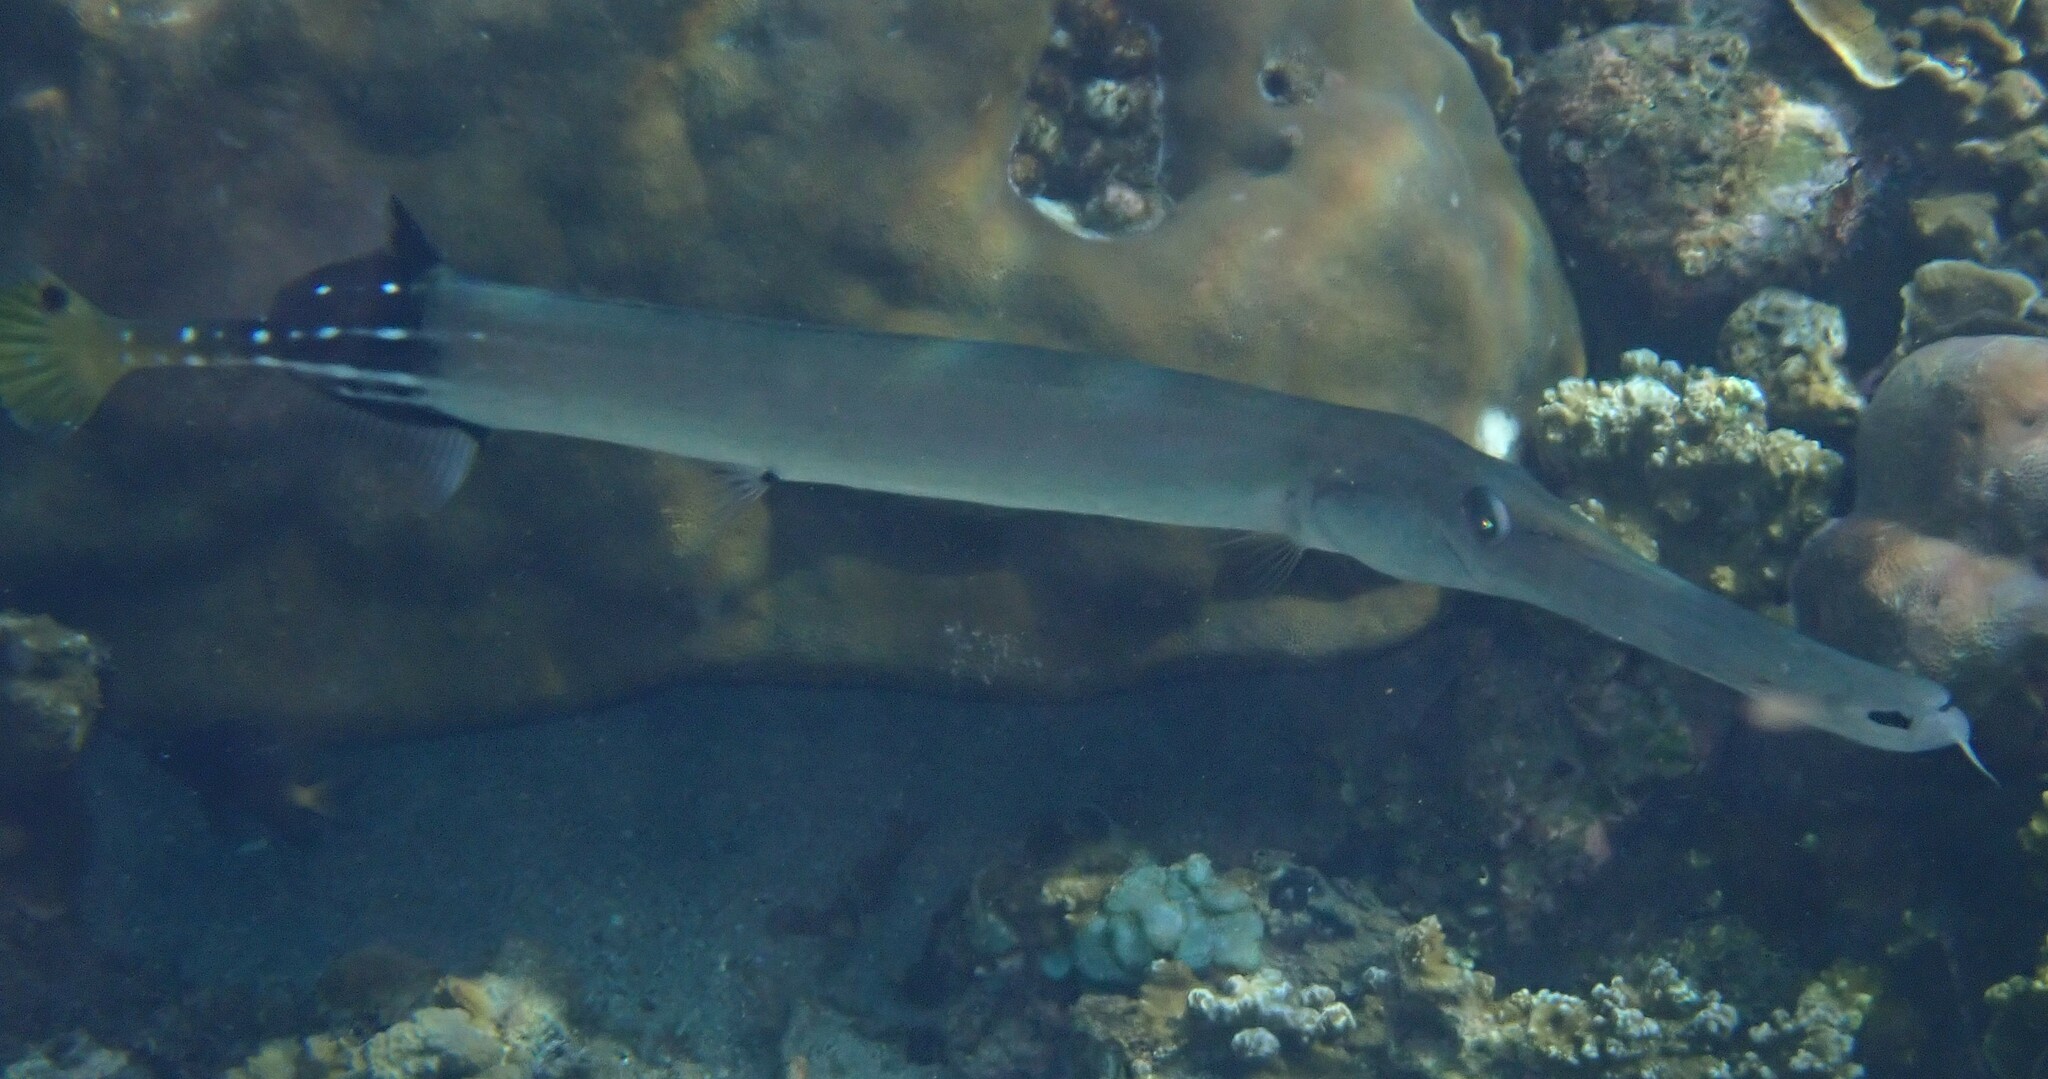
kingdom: Animalia
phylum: Chordata
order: Syngnathiformes
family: Aulostomidae
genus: Aulostomus
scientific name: Aulostomus chinensis
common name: Chinese trumpetfish
